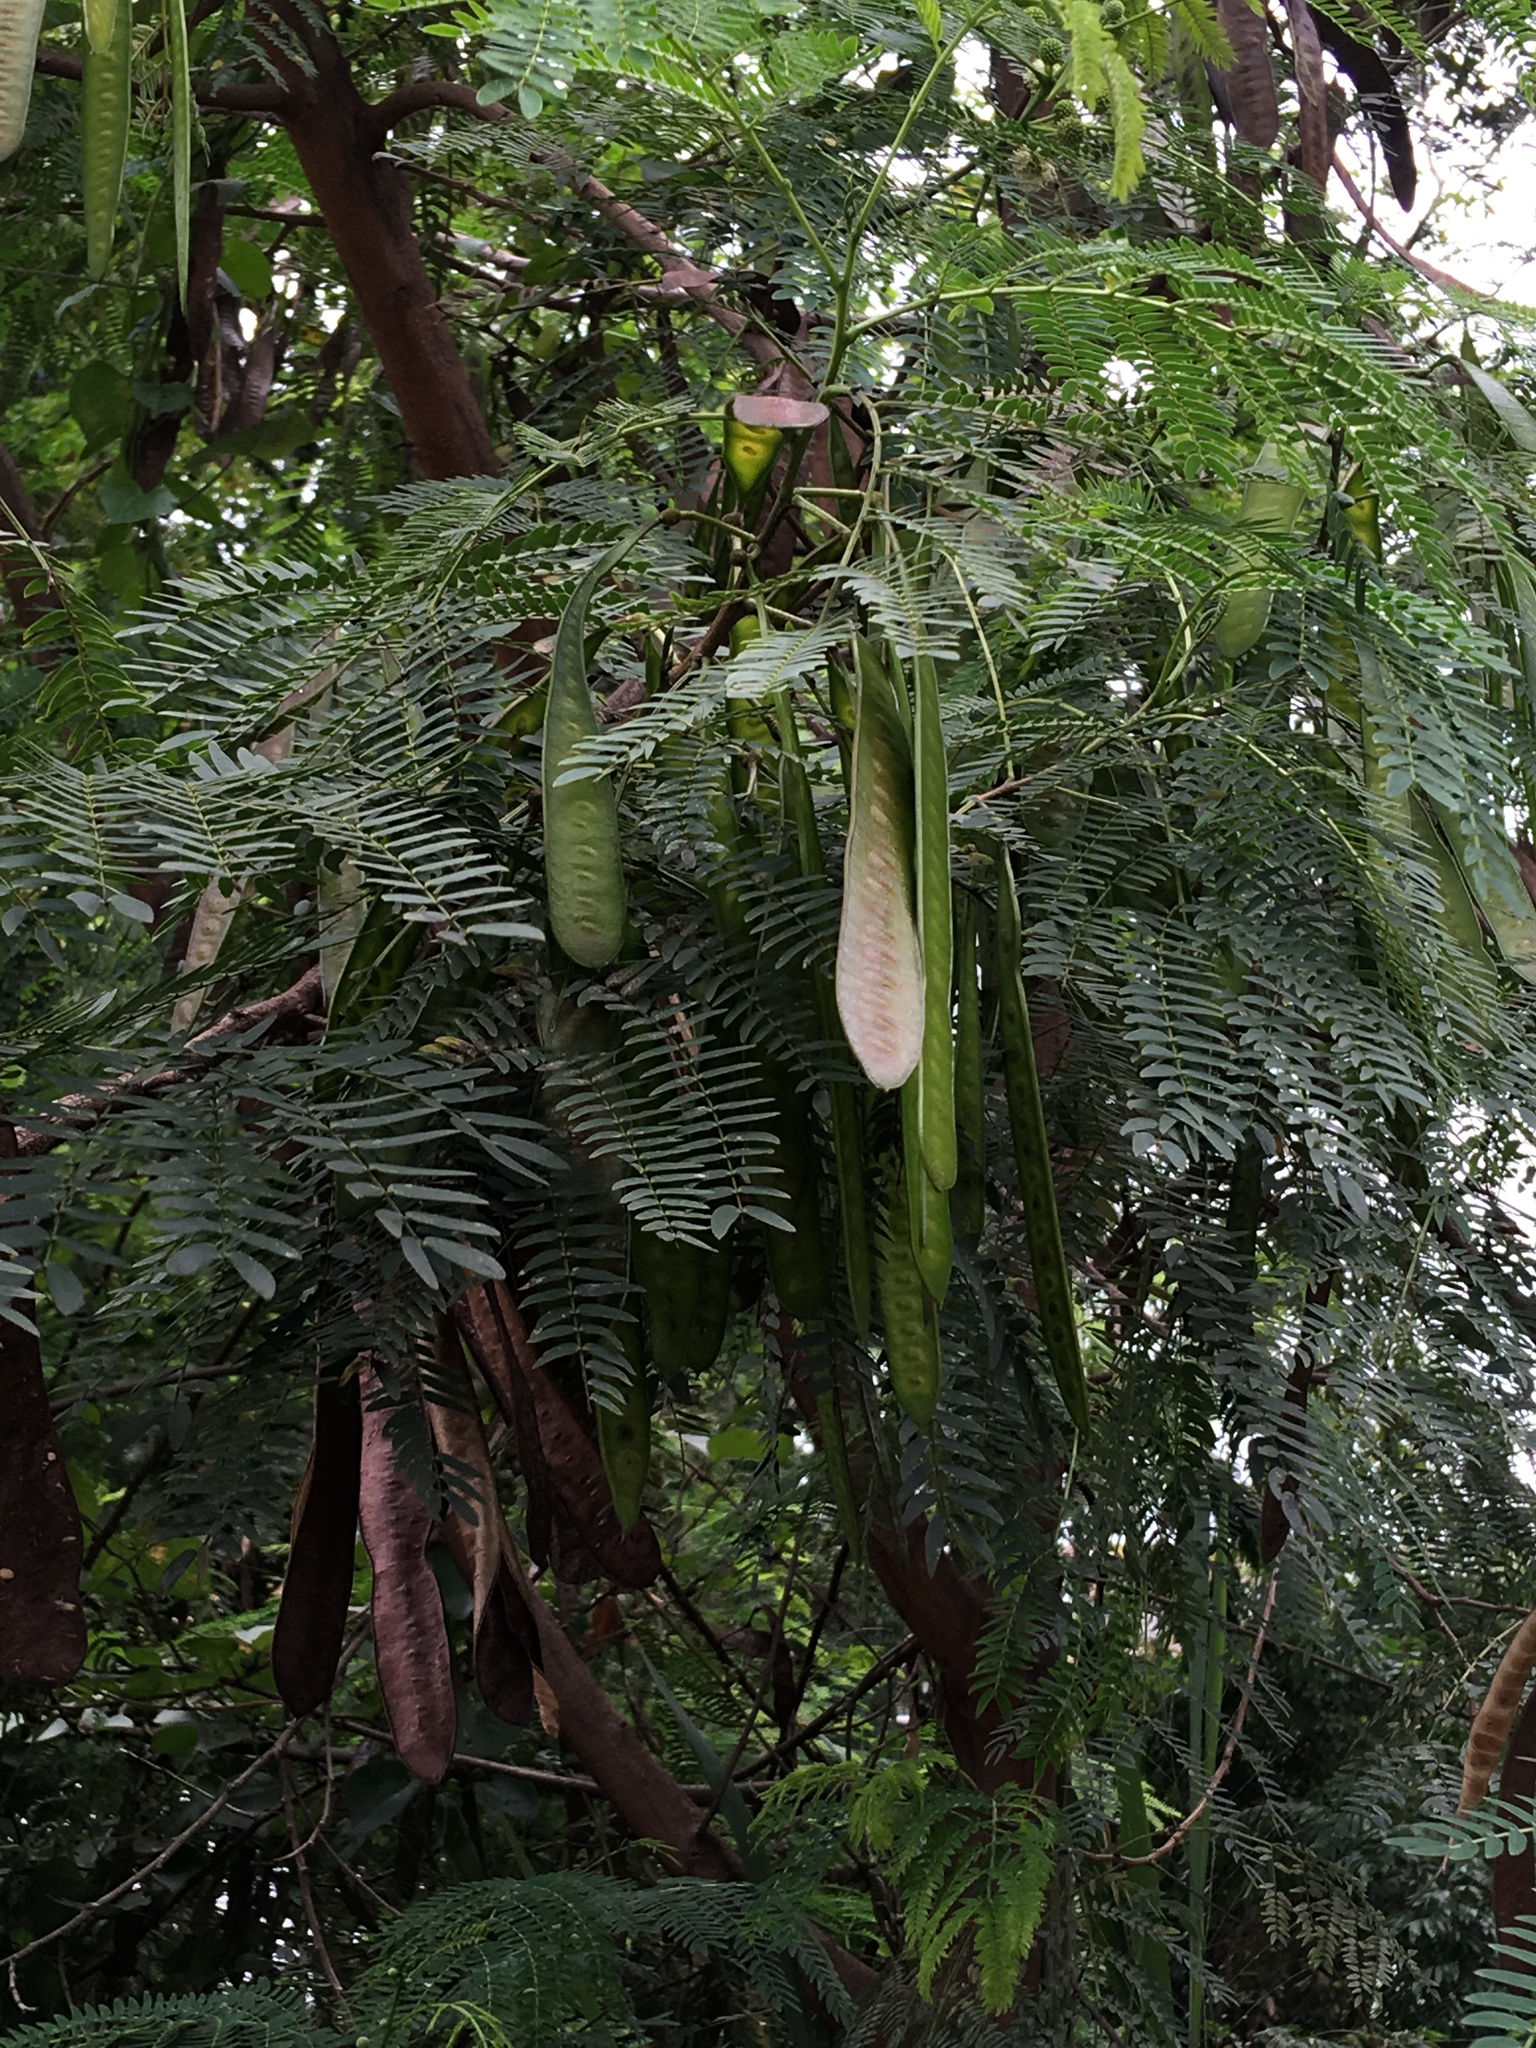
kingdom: Plantae
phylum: Tracheophyta
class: Magnoliopsida
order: Fabales
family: Fabaceae
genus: Leucaena
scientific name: Leucaena leucocephala
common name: White leadtree
